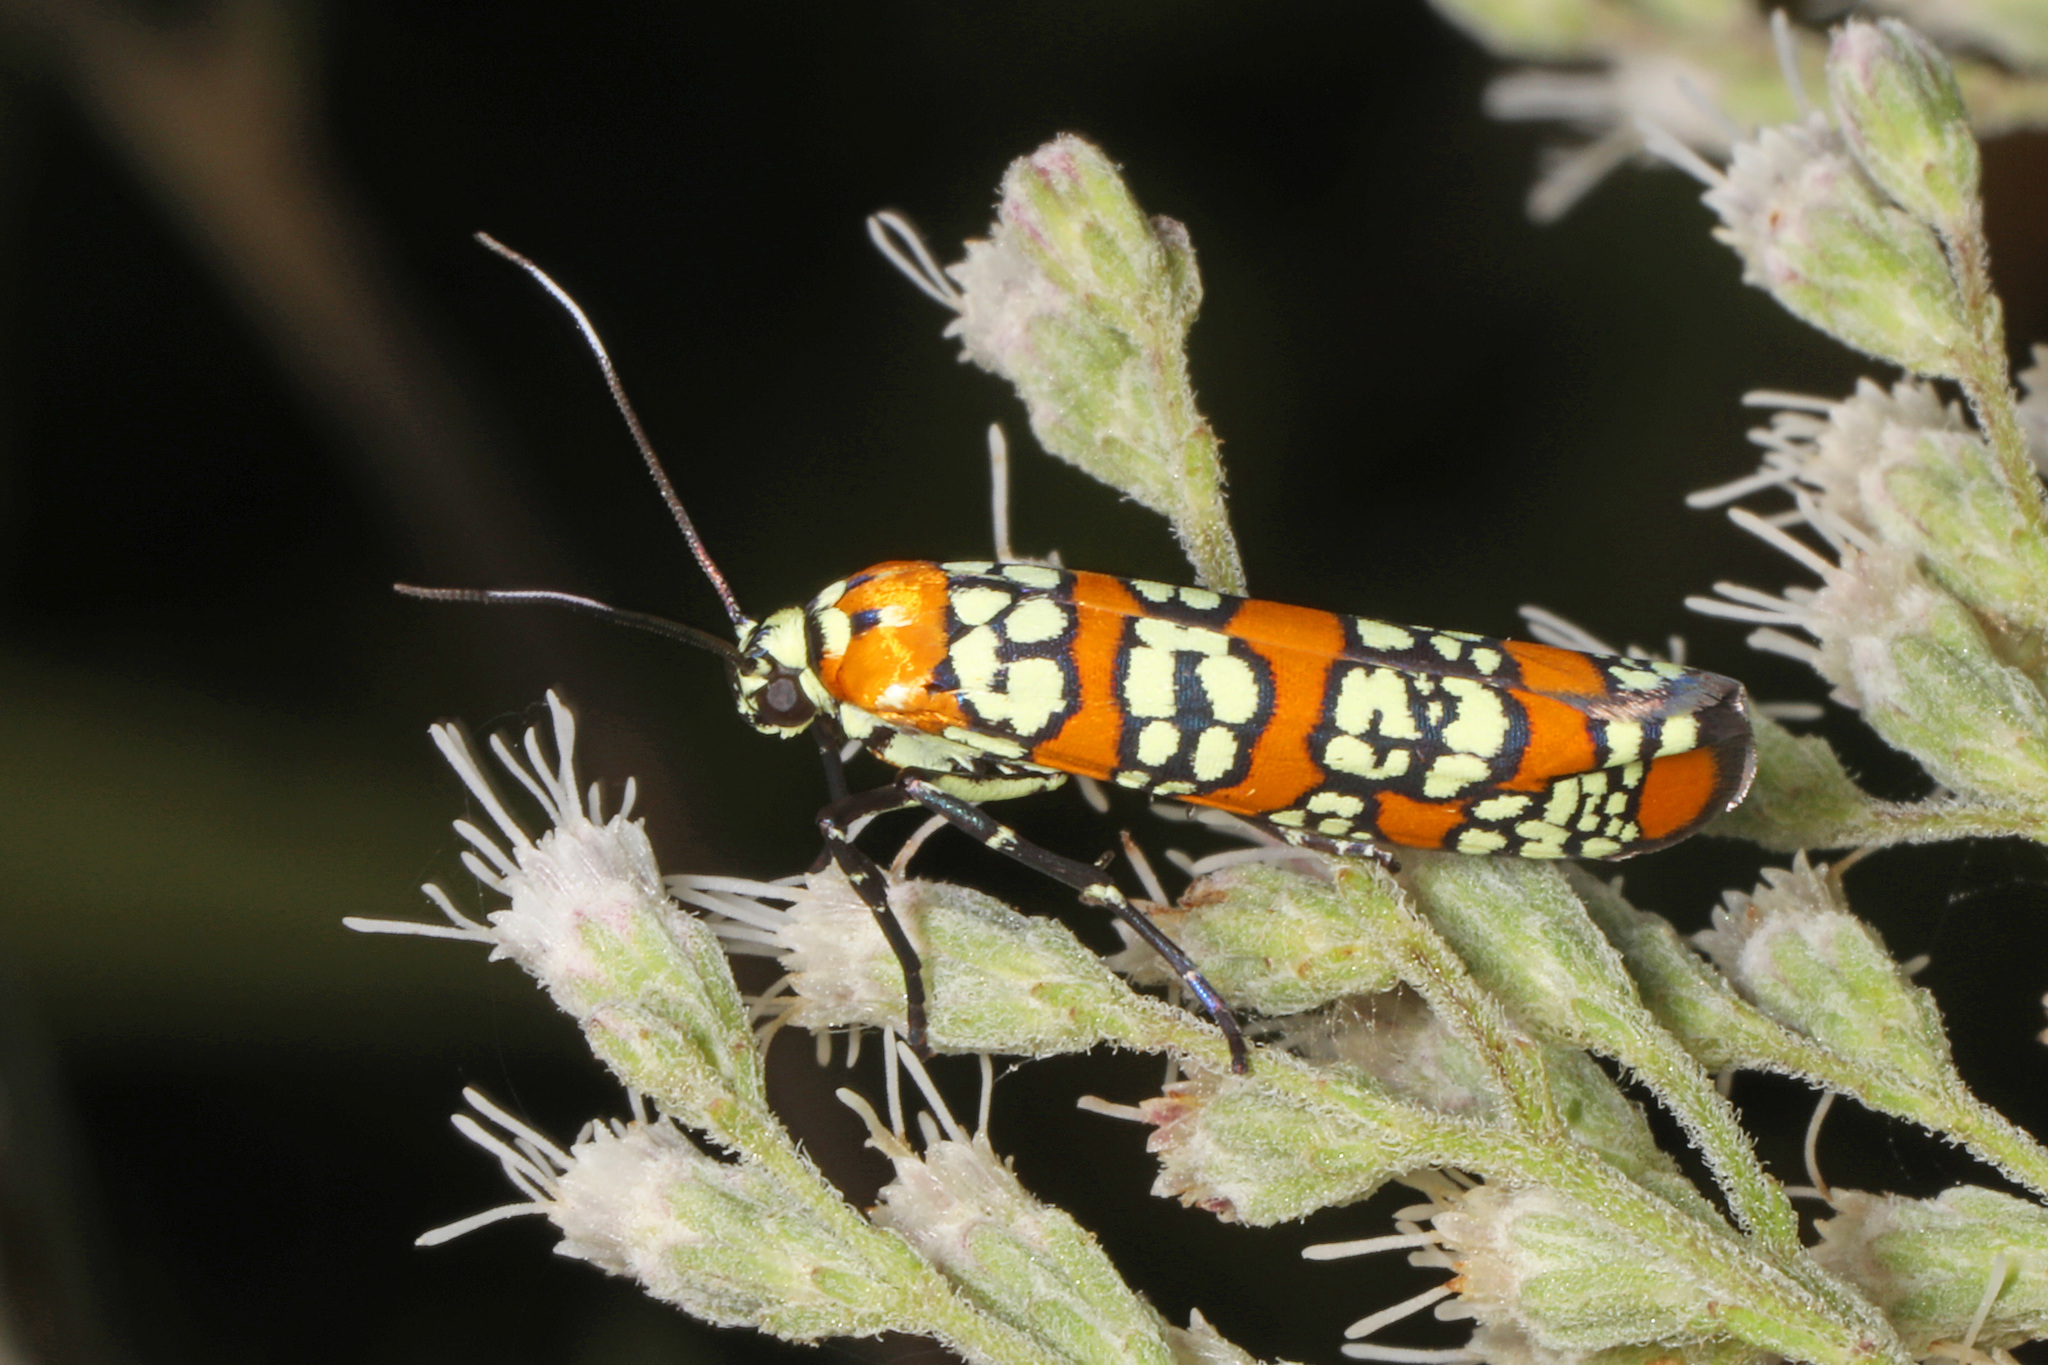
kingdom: Animalia
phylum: Arthropoda
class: Insecta
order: Lepidoptera
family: Attevidae
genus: Atteva
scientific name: Atteva punctella
